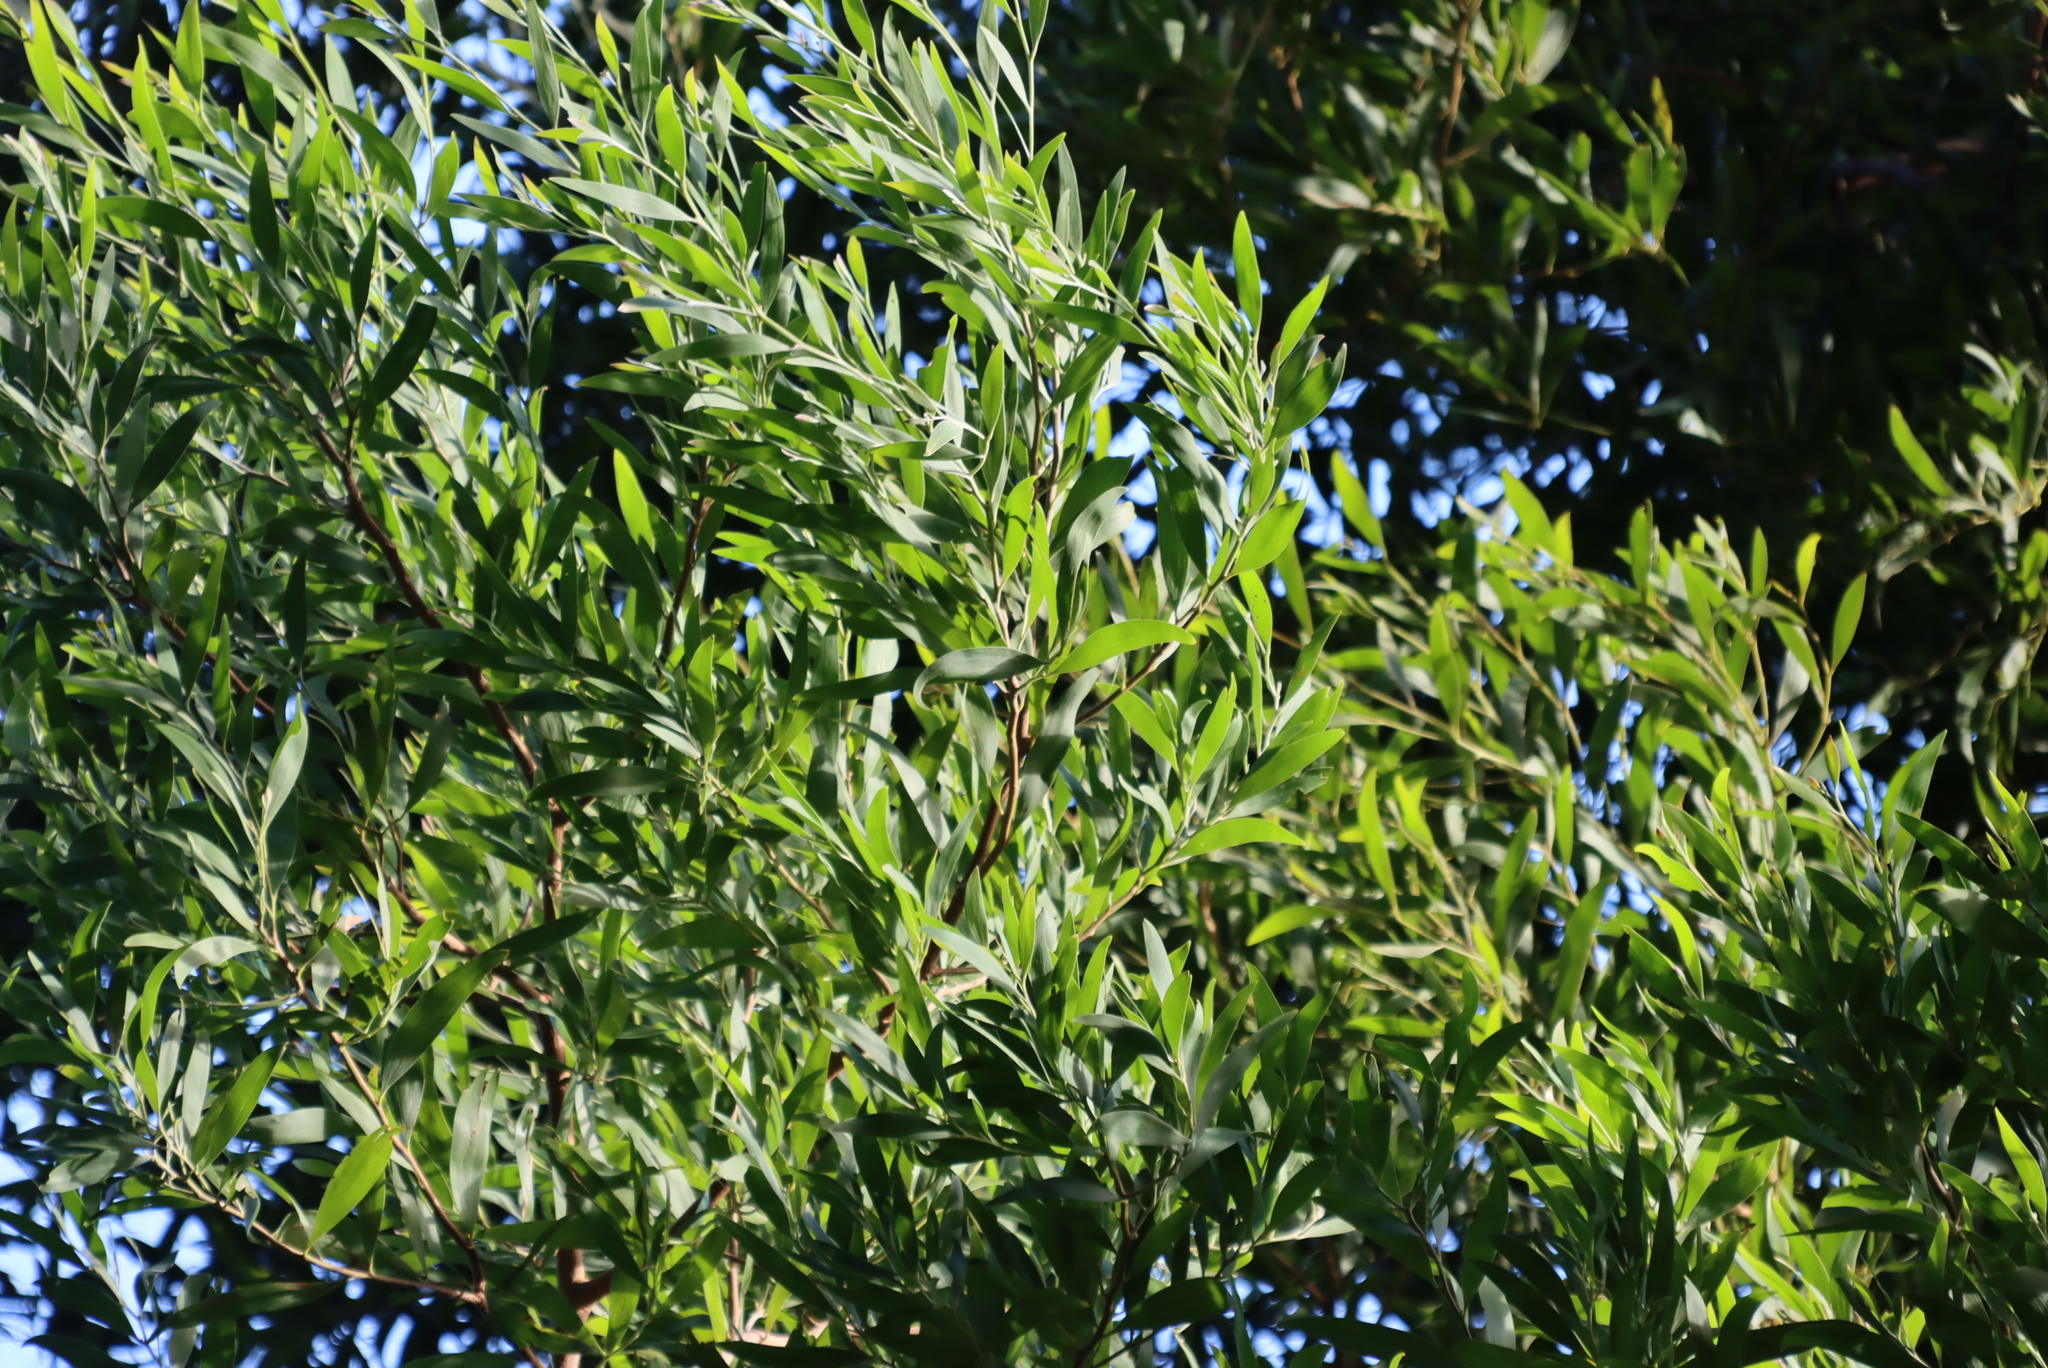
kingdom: Plantae
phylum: Tracheophyta
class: Magnoliopsida
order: Fabales
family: Fabaceae
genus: Acacia
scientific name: Acacia melanoxylon
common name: Blackwood
